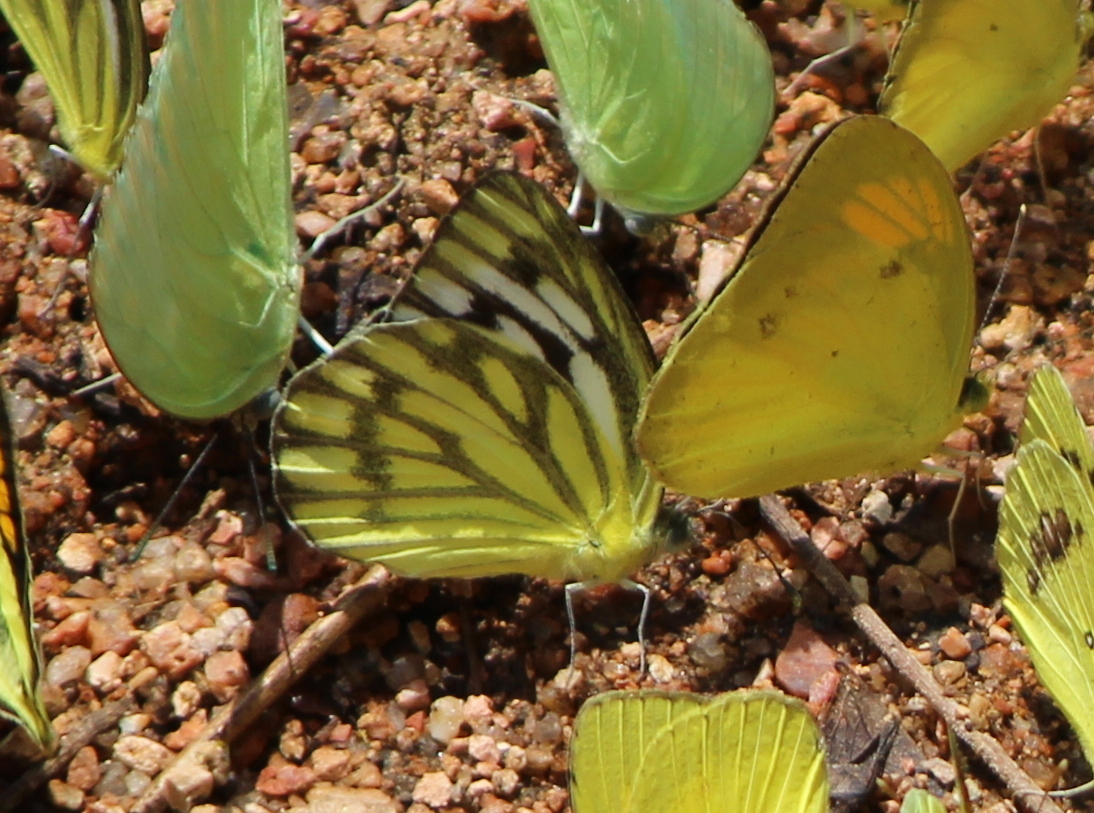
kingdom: Animalia
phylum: Arthropoda
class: Insecta
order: Lepidoptera
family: Pieridae
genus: Cepora
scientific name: Cepora nerissa
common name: Common gull
